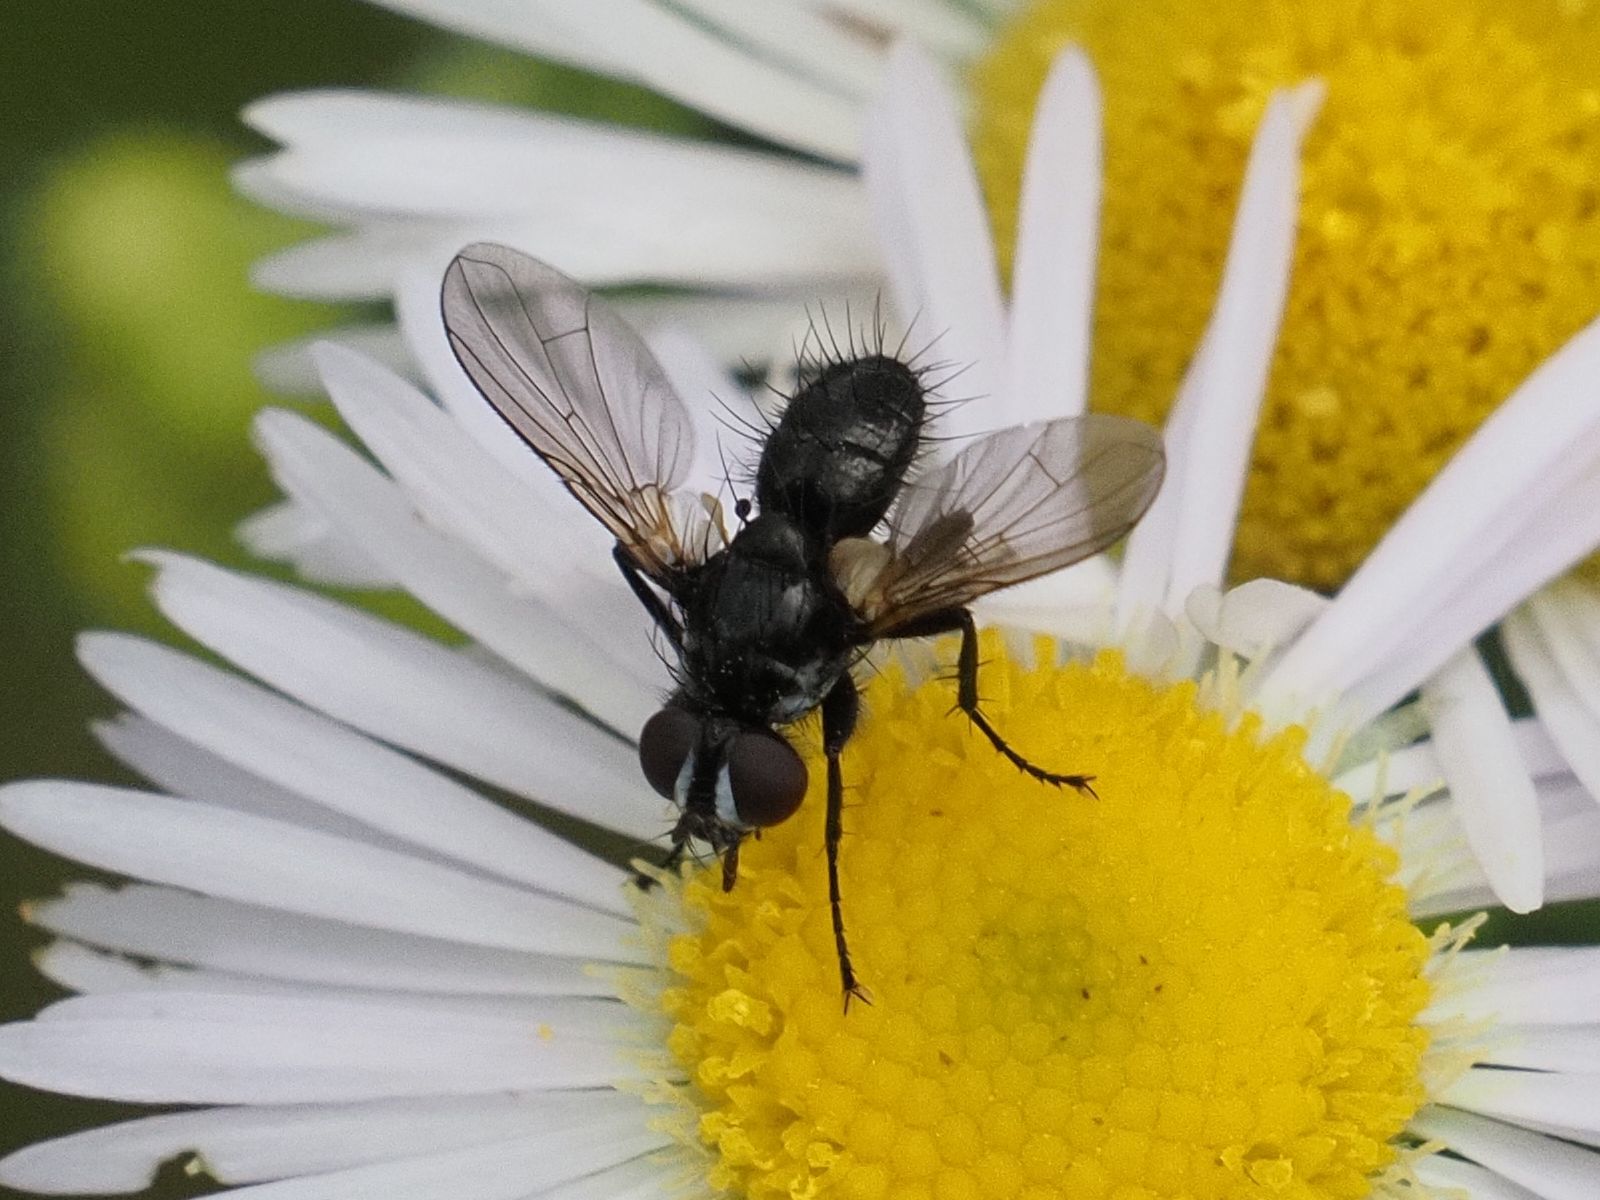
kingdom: Animalia
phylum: Arthropoda
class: Insecta
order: Diptera
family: Tachinidae
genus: Phania
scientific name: Phania funesta
